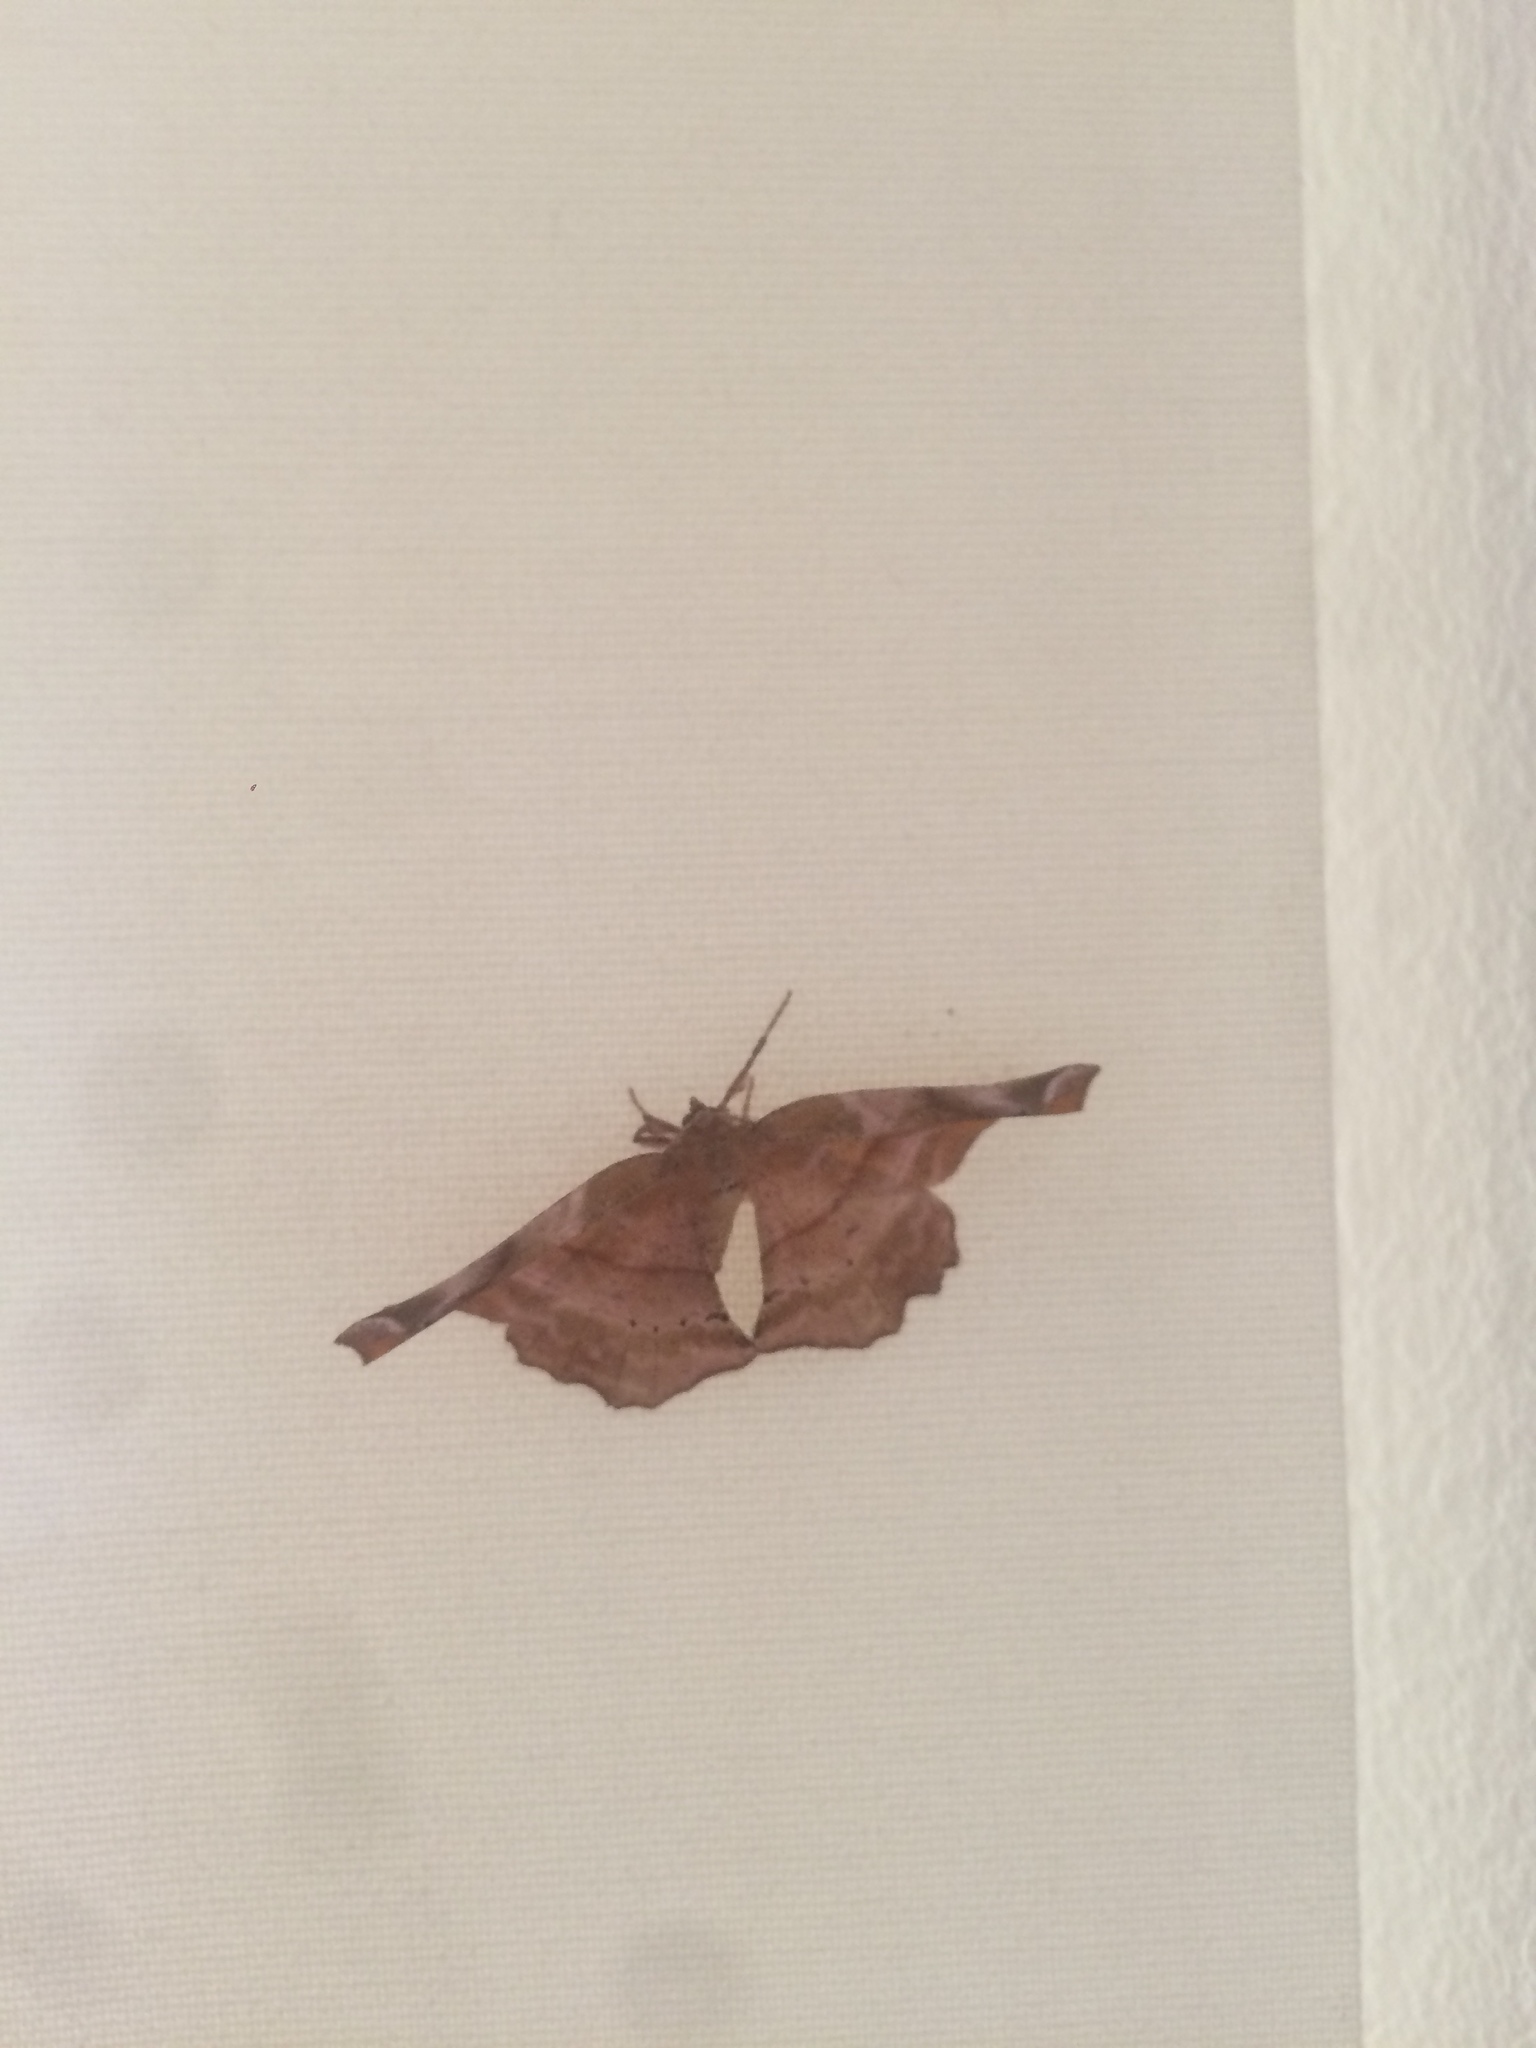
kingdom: Animalia
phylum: Arthropoda
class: Insecta
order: Lepidoptera
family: Geometridae
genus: Apeira
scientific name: Apeira syringaria
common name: Lilac beauty
